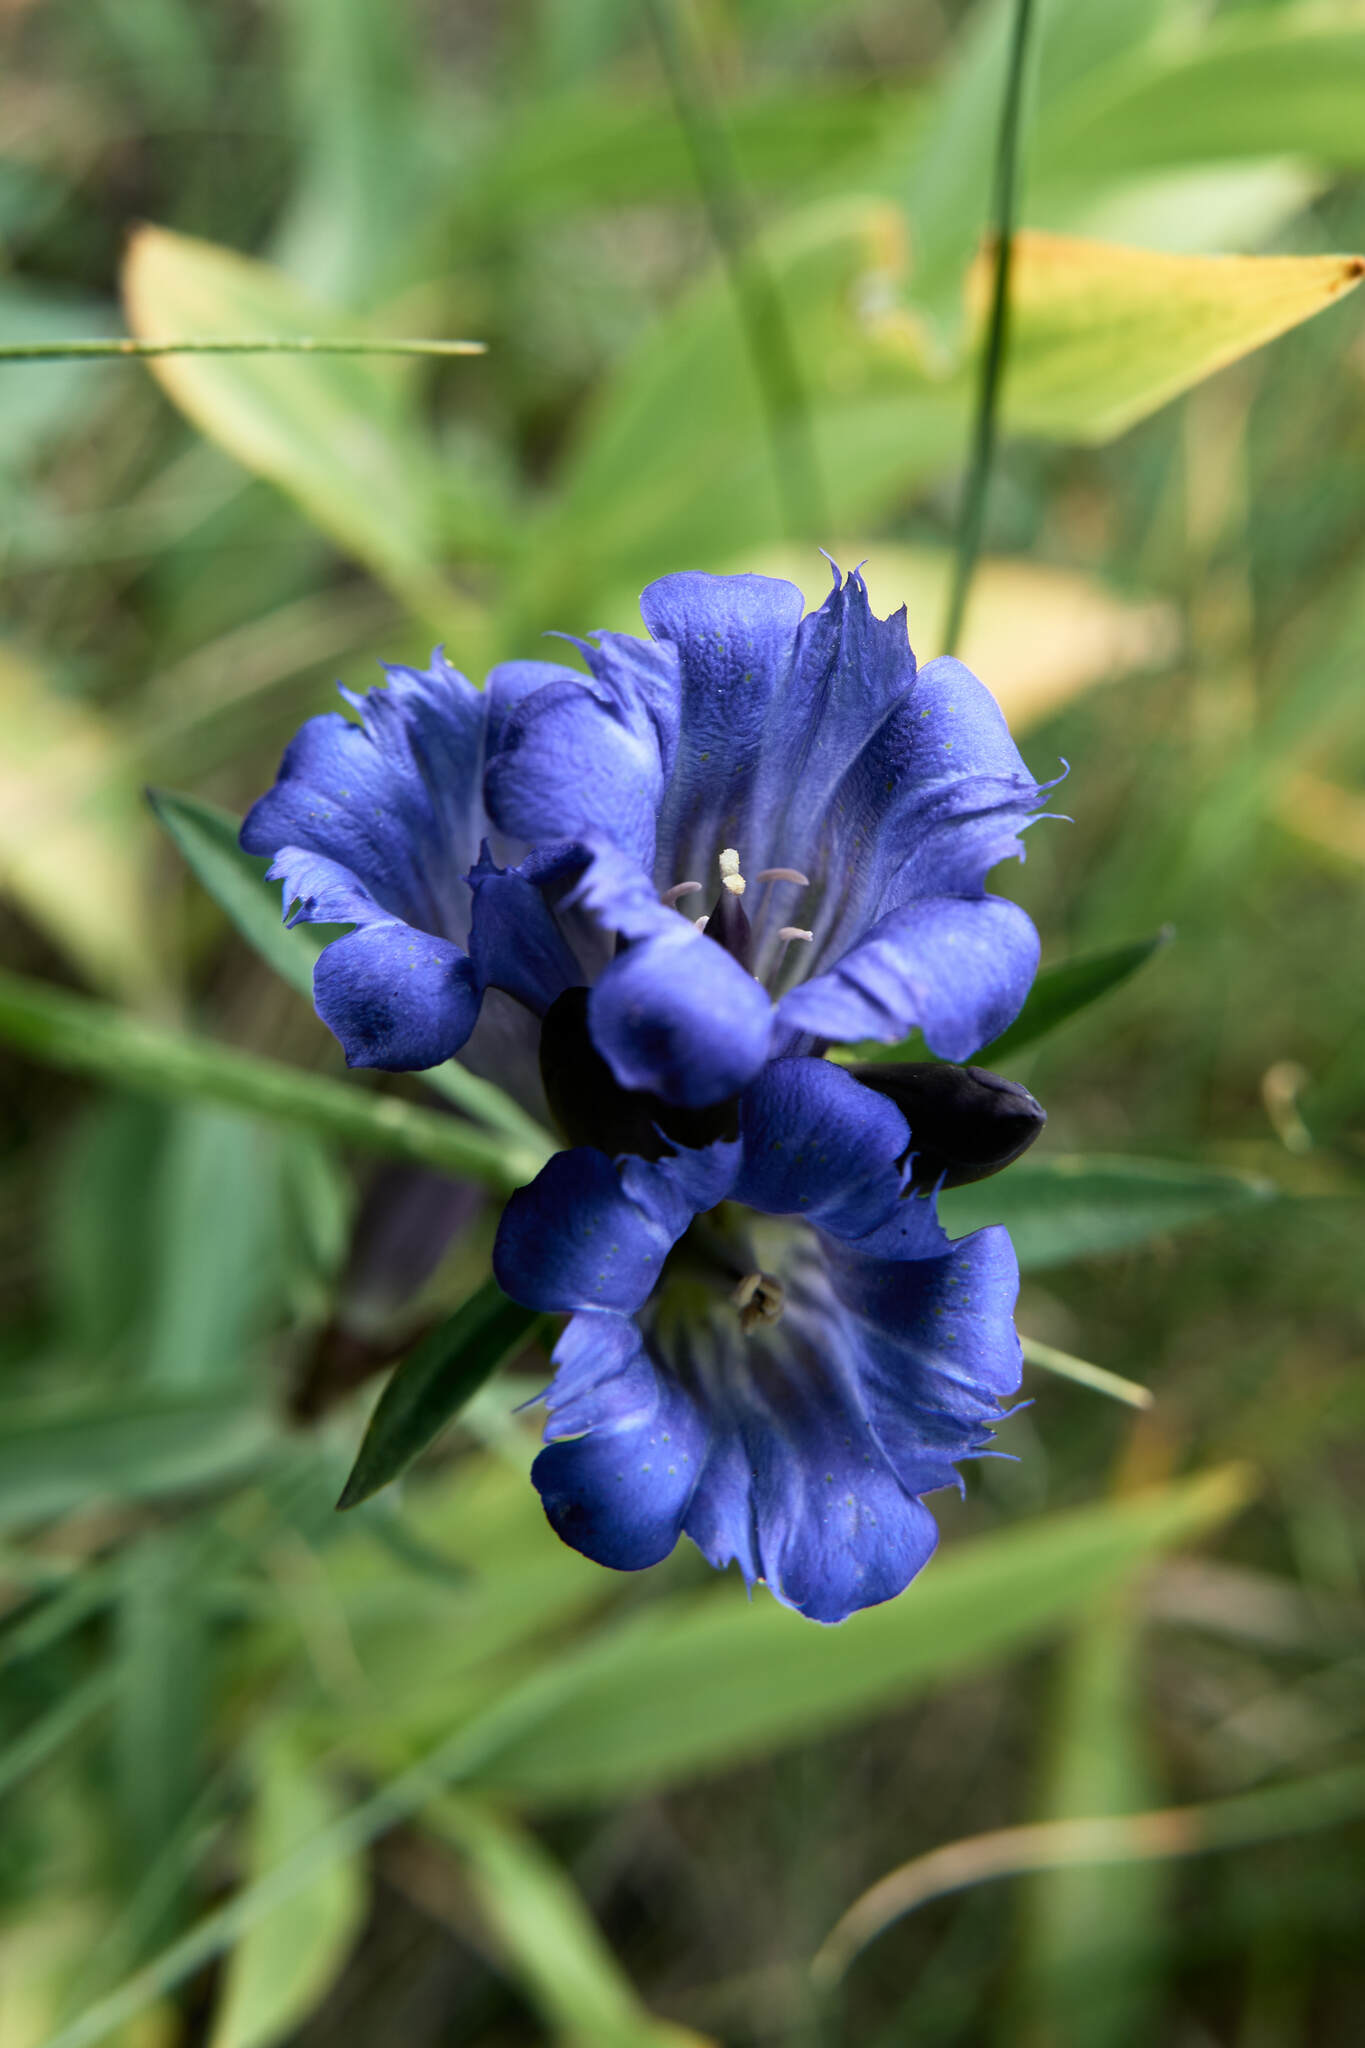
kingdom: Plantae
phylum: Tracheophyta
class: Magnoliopsida
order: Gentianales
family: Gentianaceae
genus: Gentiana
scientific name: Gentiana affinis
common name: Rocky mountain gentian
